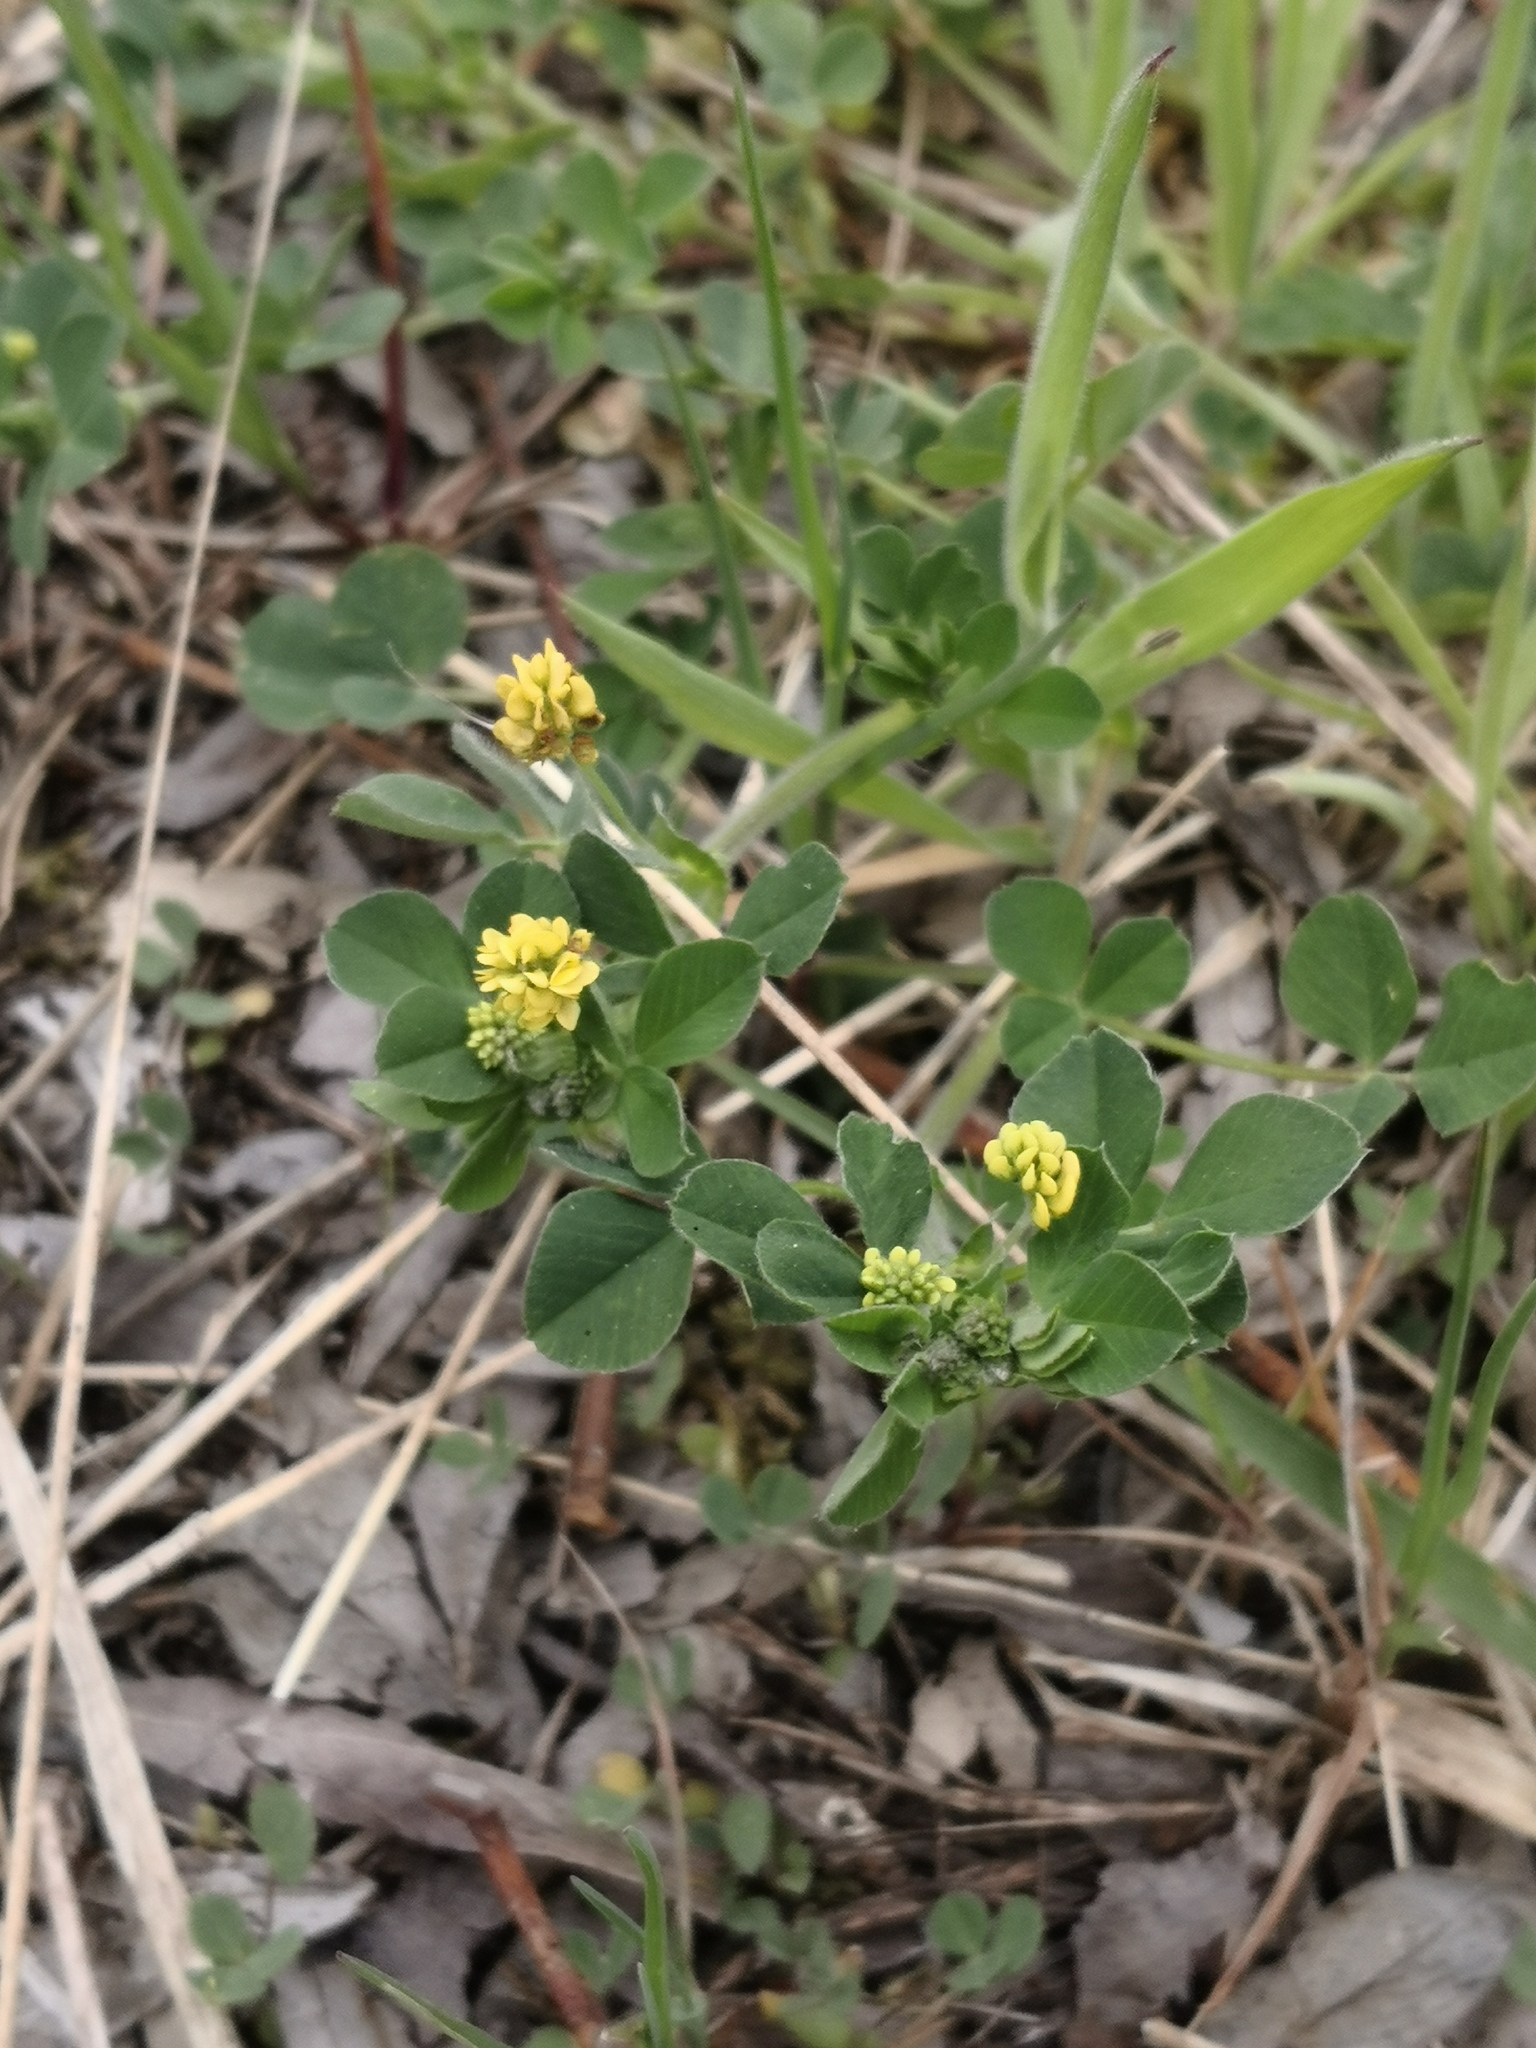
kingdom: Plantae
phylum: Tracheophyta
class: Magnoliopsida
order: Fabales
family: Fabaceae
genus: Medicago
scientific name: Medicago lupulina
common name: Black medick
